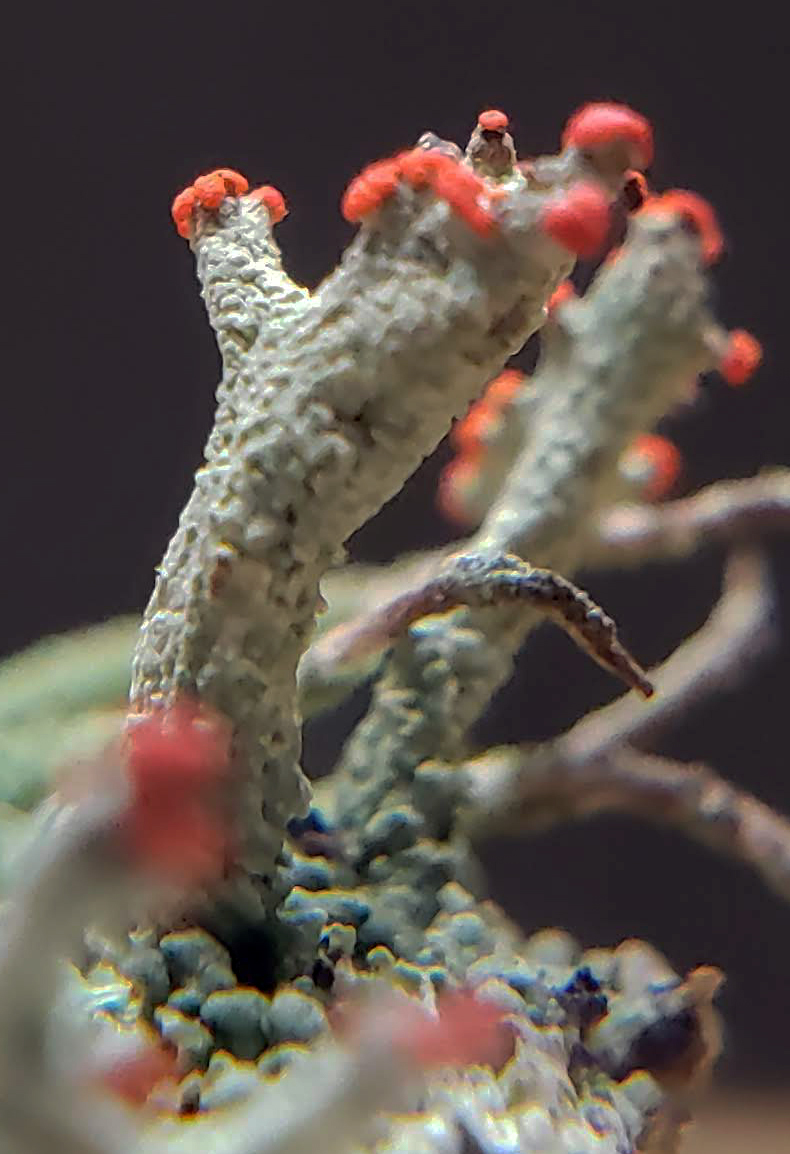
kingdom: Fungi
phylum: Ascomycota
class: Lecanoromycetes
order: Lecanorales
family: Cladoniaceae
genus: Cladonia
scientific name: Cladonia cristatella
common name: British soldier lichen
